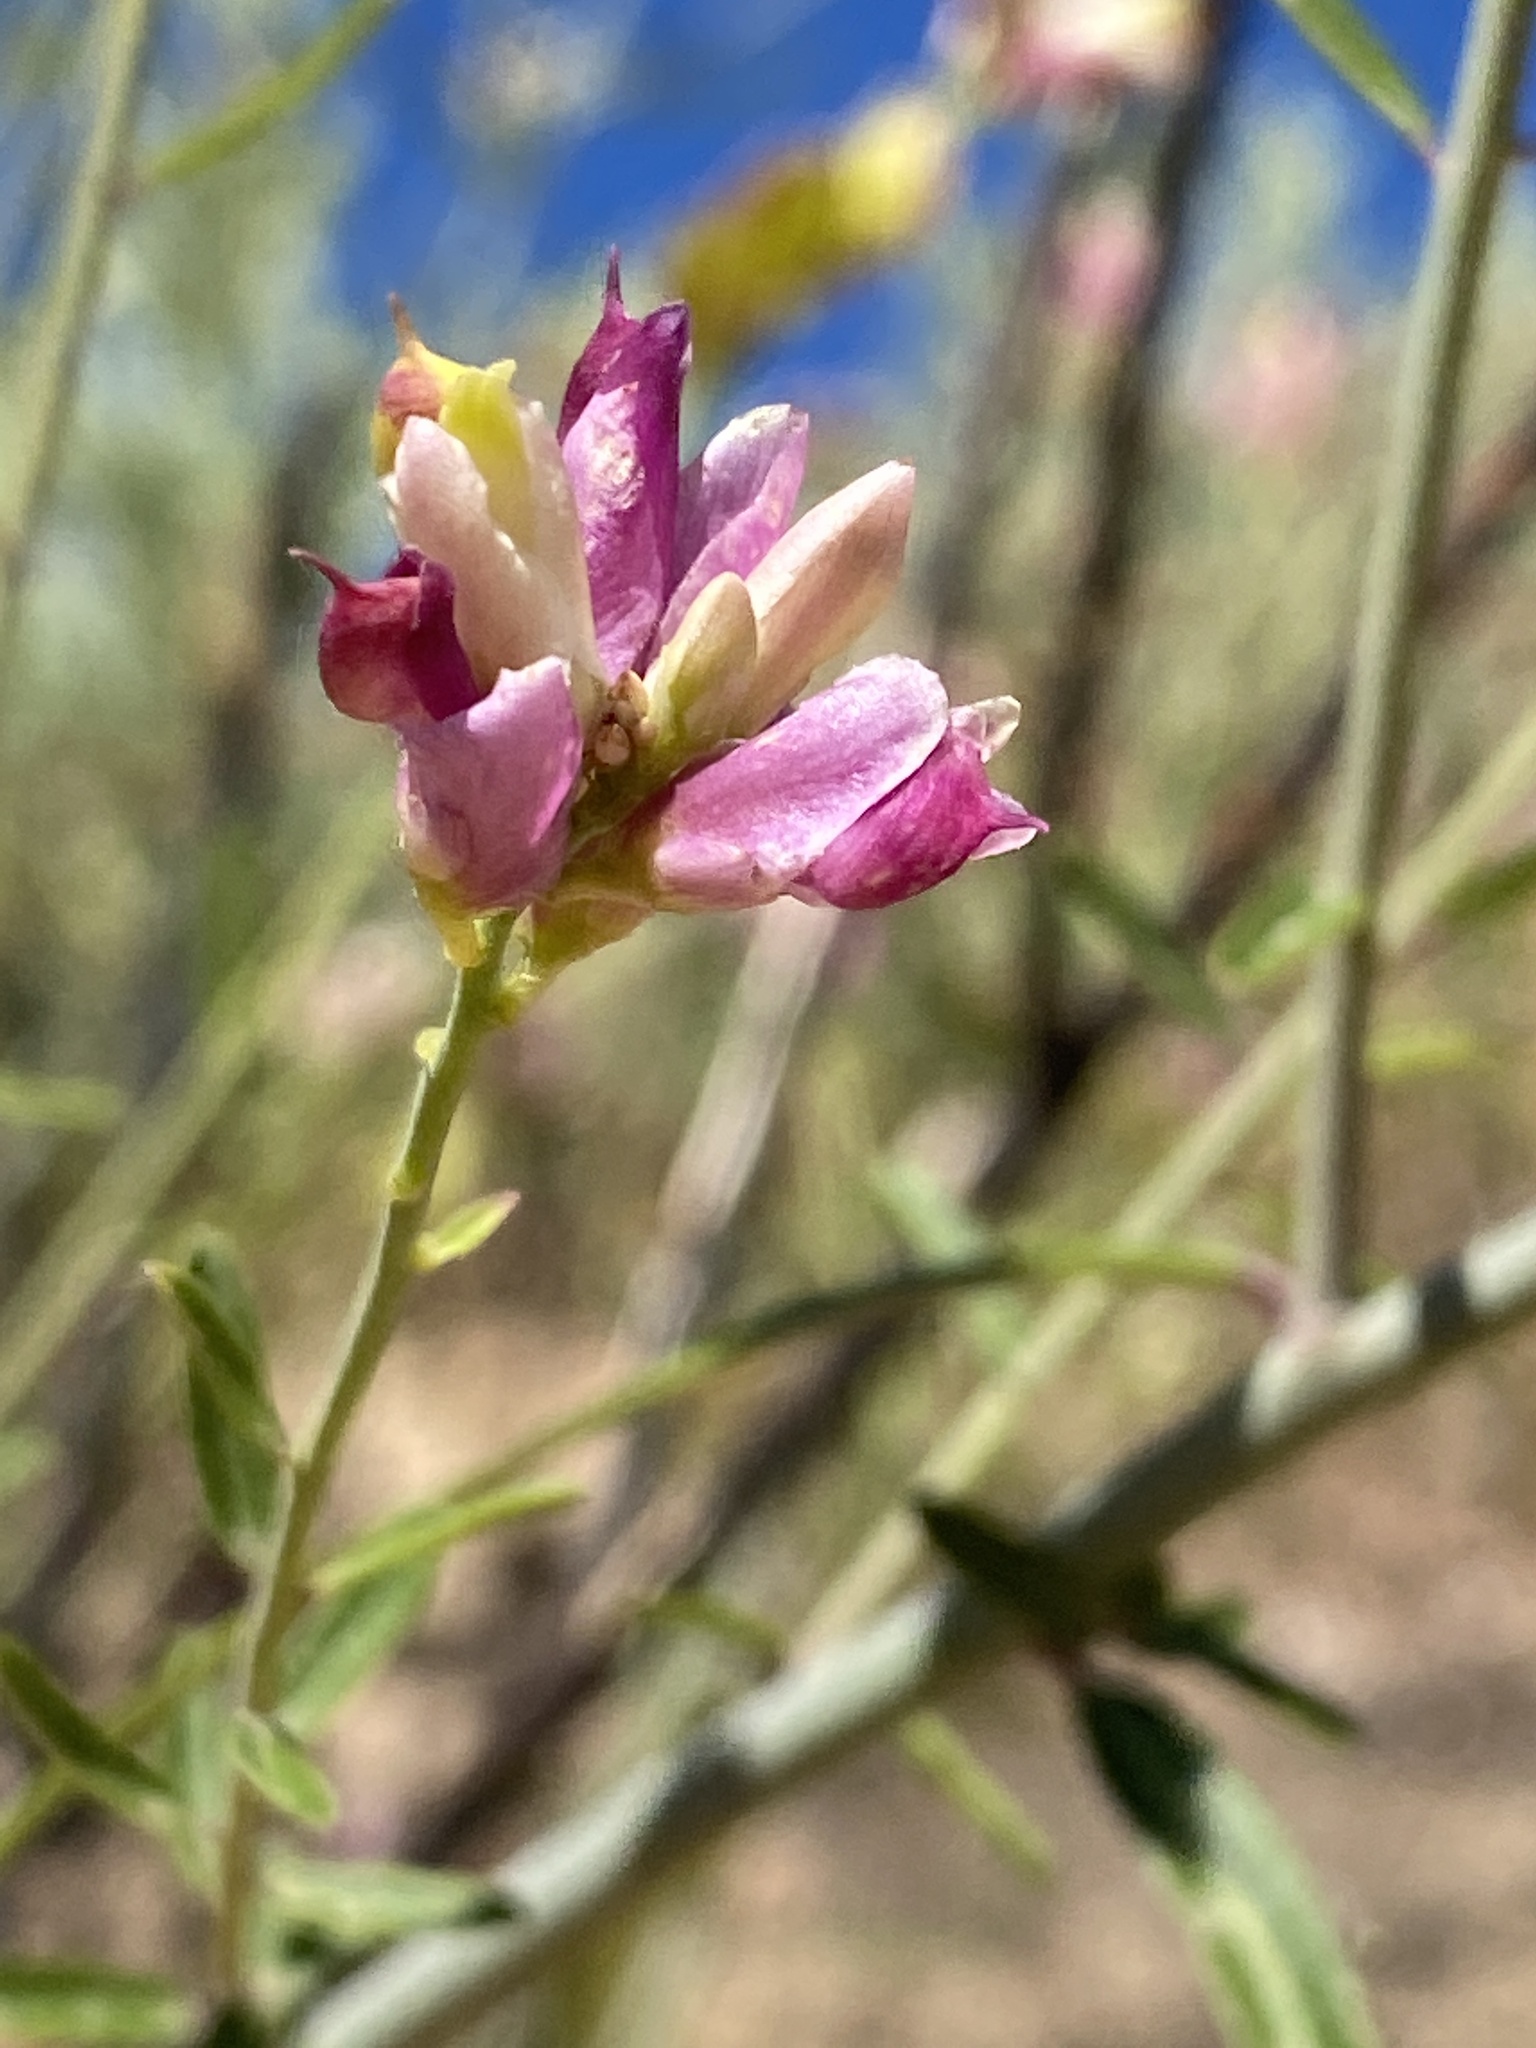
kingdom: Plantae
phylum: Tracheophyta
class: Magnoliopsida
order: Fabales
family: Polygalaceae
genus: Rhinotropis
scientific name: Rhinotropis cornuta
